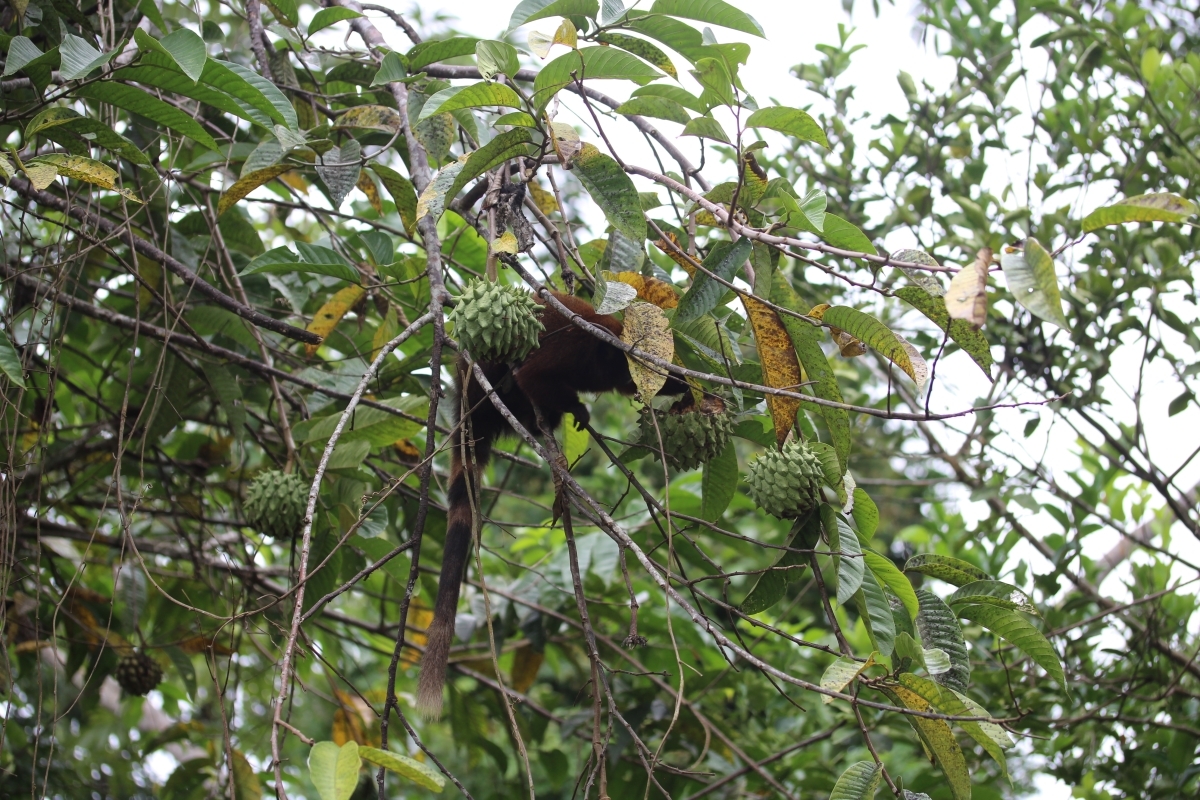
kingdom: Animalia
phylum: Chordata
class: Mammalia
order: Primates
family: Pitheciidae
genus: Plecturocebus
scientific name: Plecturocebus toppini
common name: Toppin's titi
